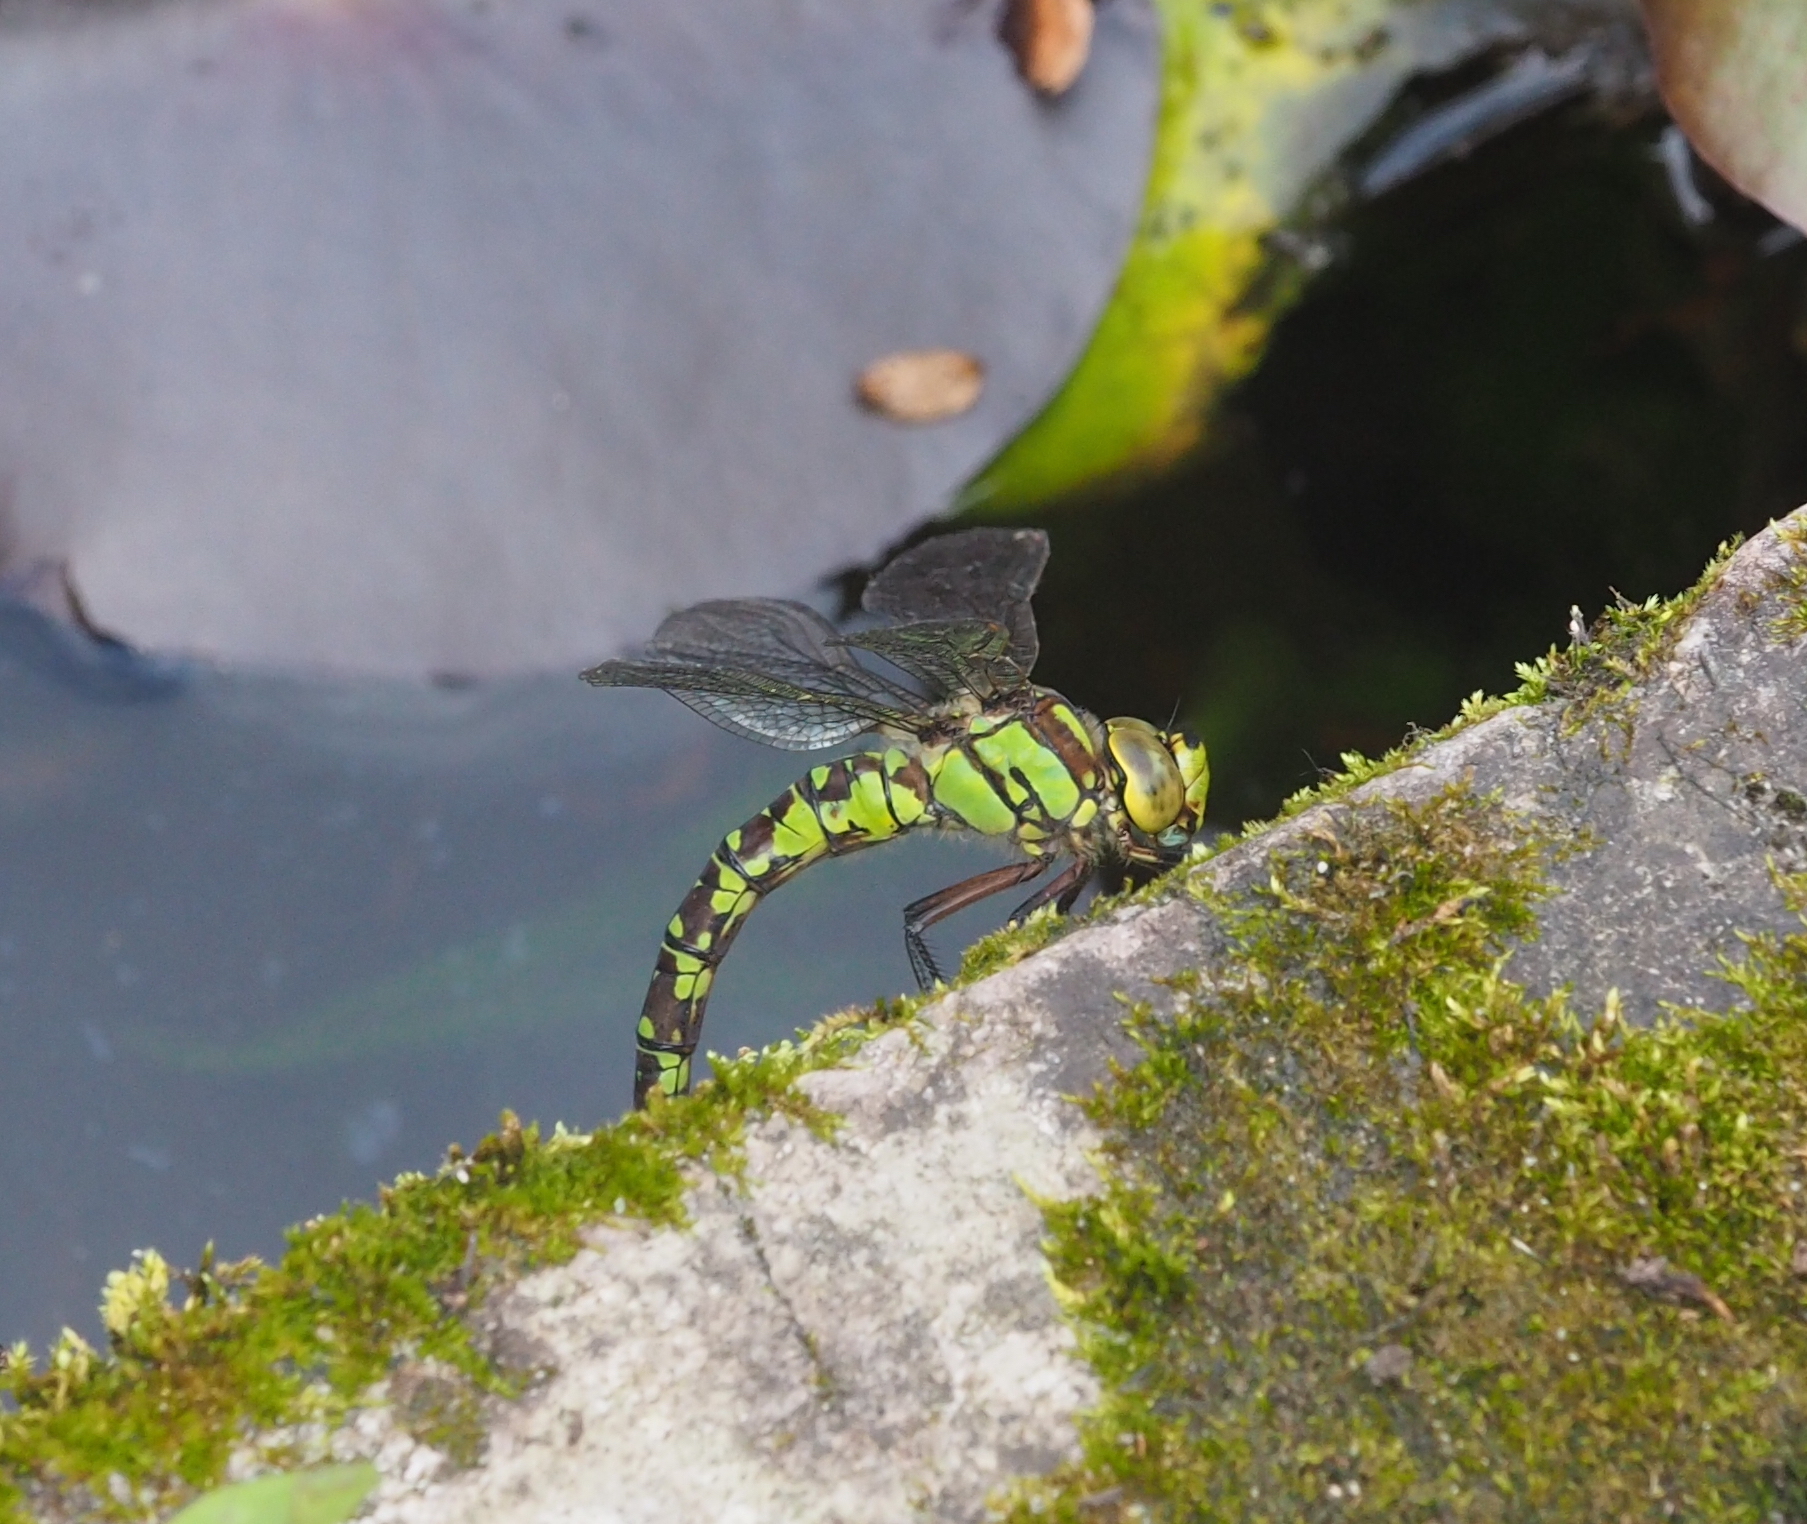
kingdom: Animalia
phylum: Arthropoda
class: Insecta
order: Odonata
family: Aeshnidae
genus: Aeshna
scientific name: Aeshna cyanea
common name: Southern hawker
